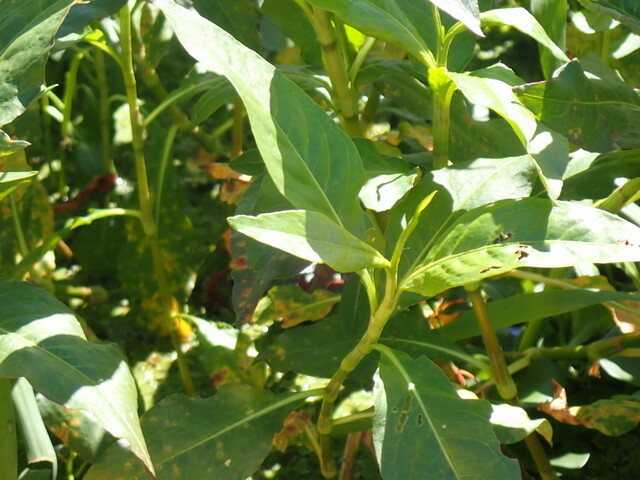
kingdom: Plantae
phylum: Tracheophyta
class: Magnoliopsida
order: Caryophyllales
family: Polygonaceae
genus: Persicaria
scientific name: Persicaria glabra
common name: Denseflower knotweed
